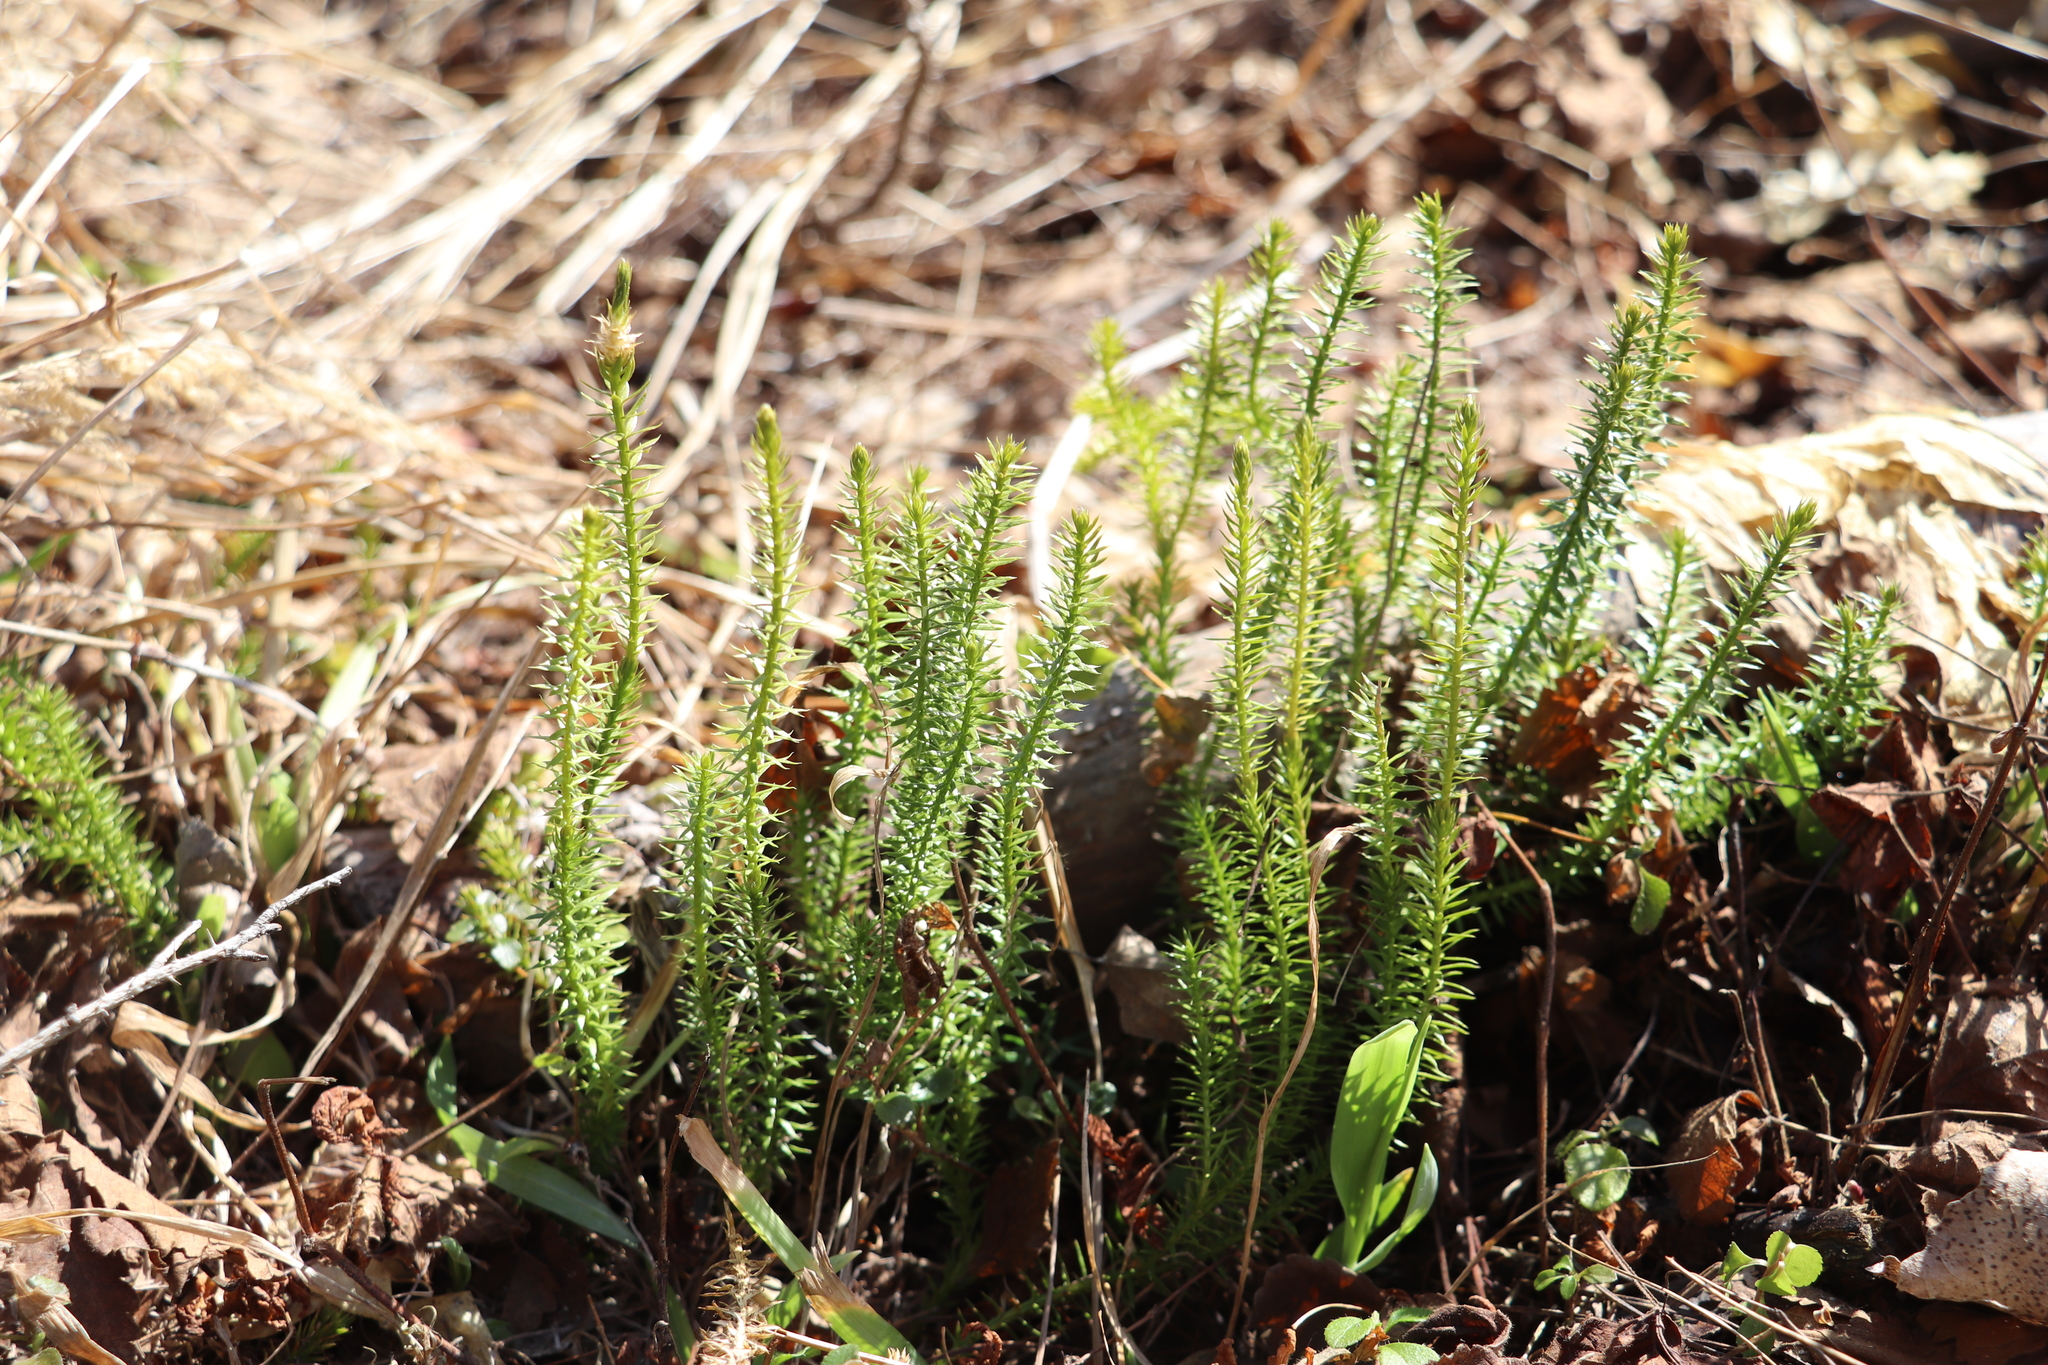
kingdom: Plantae
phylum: Tracheophyta
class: Lycopodiopsida
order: Lycopodiales
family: Lycopodiaceae
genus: Spinulum
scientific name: Spinulum annotinum
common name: Interrupted club-moss
